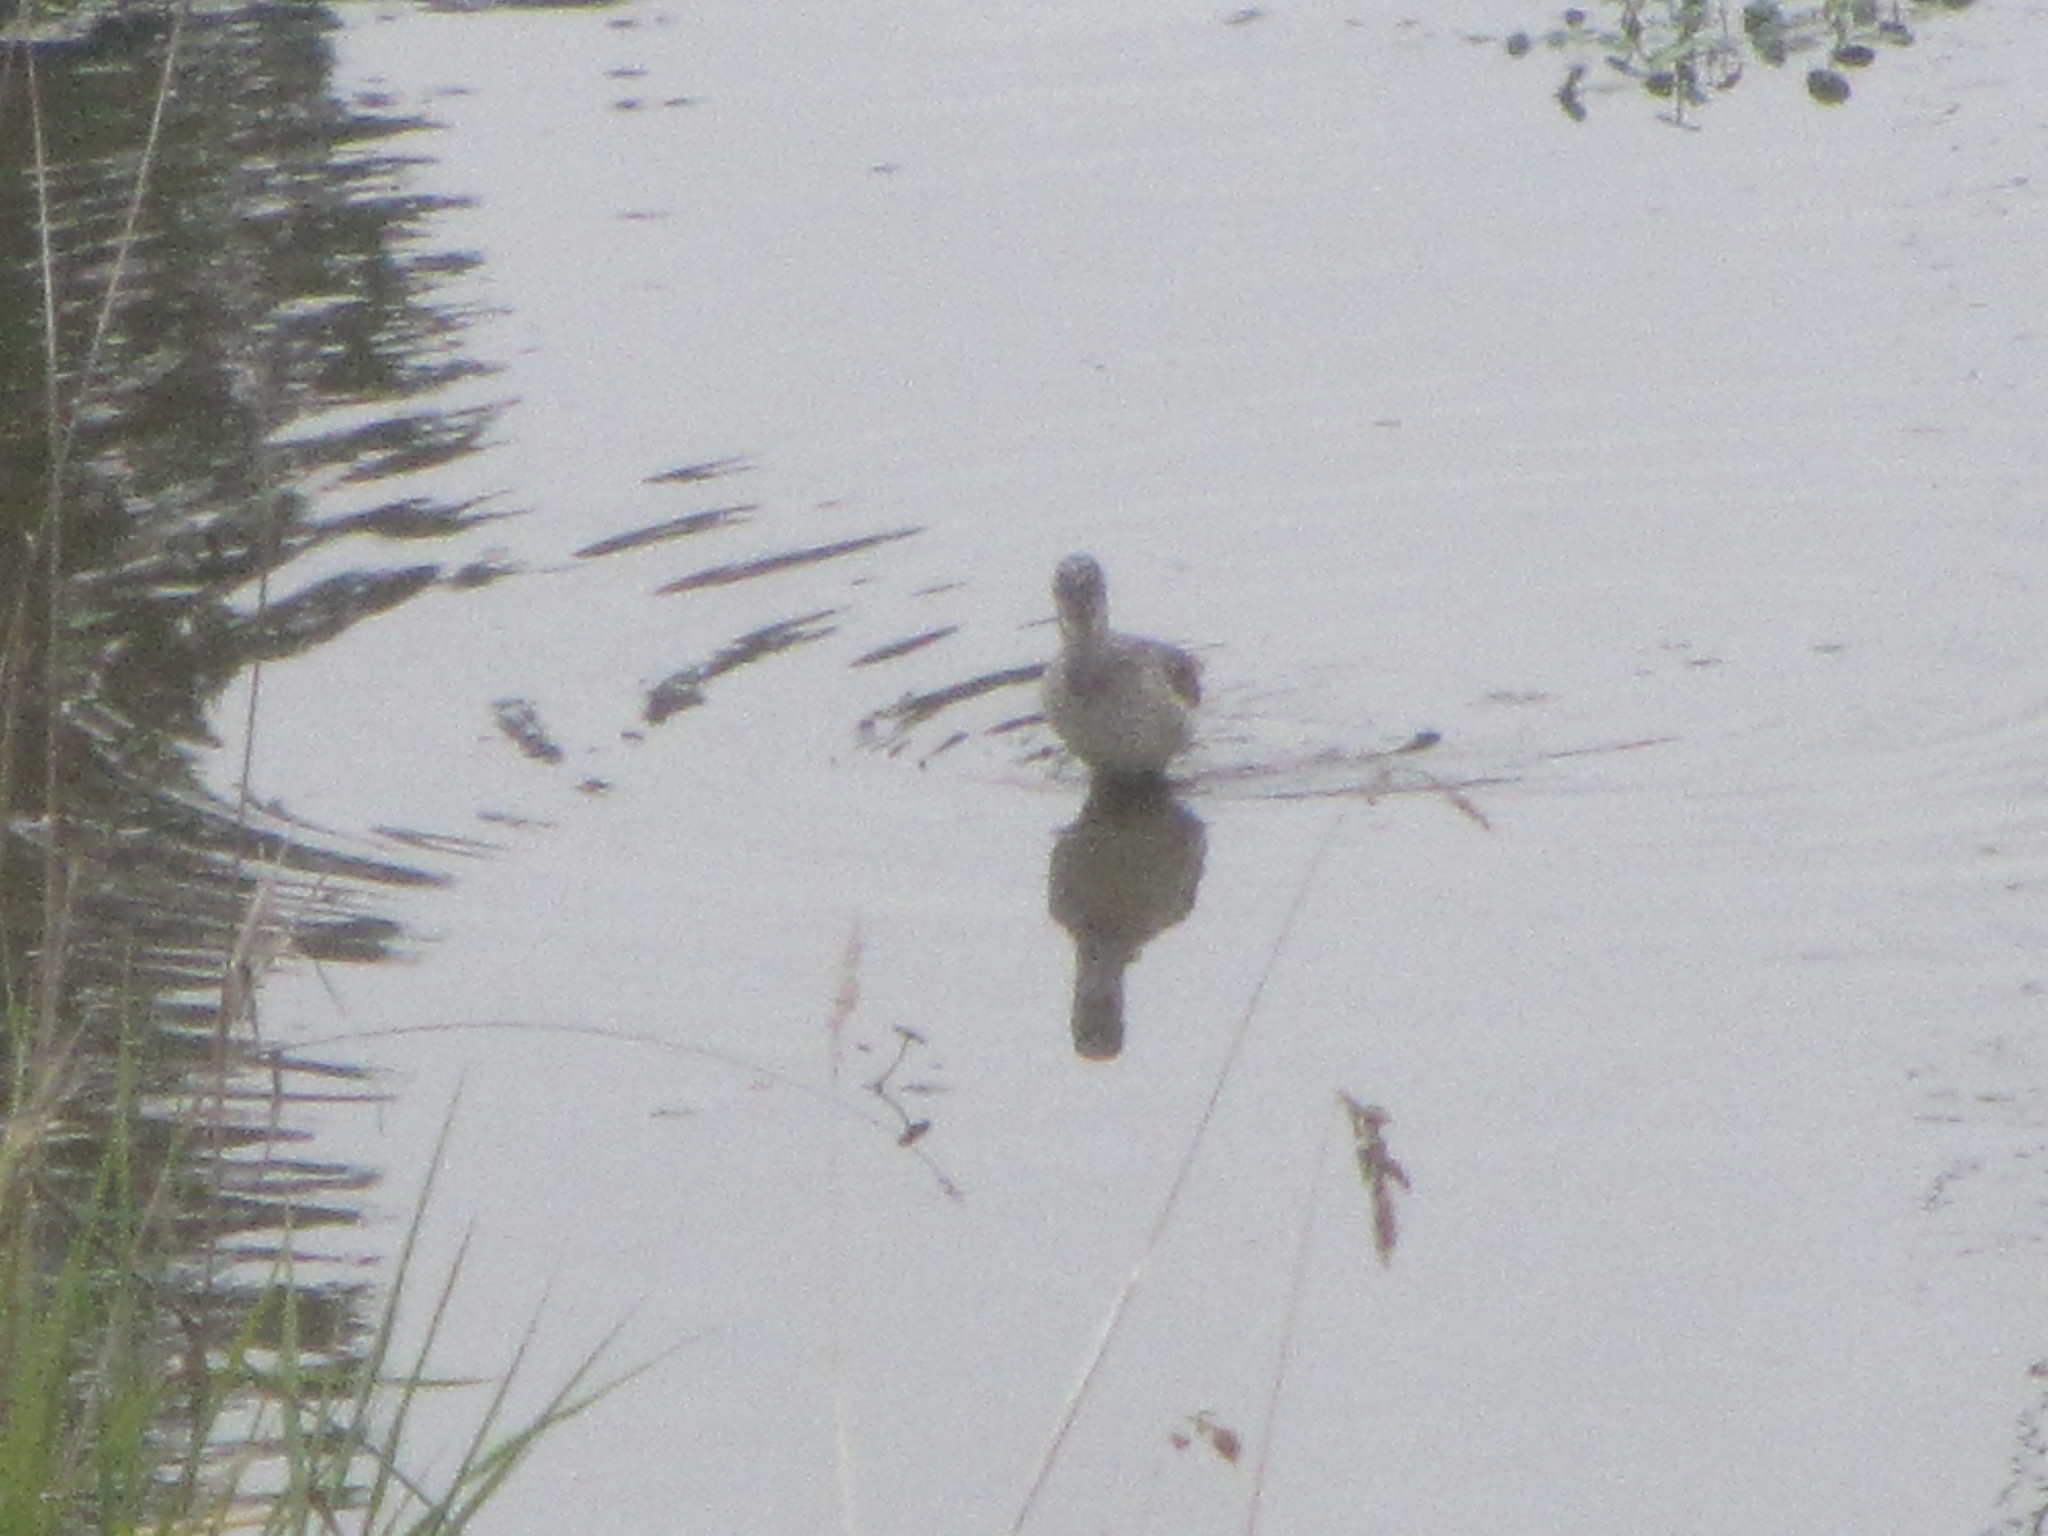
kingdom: Animalia
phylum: Chordata
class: Aves
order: Charadriiformes
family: Scolopacidae
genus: Tringa
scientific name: Tringa melanoleuca
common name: Greater yellowlegs
